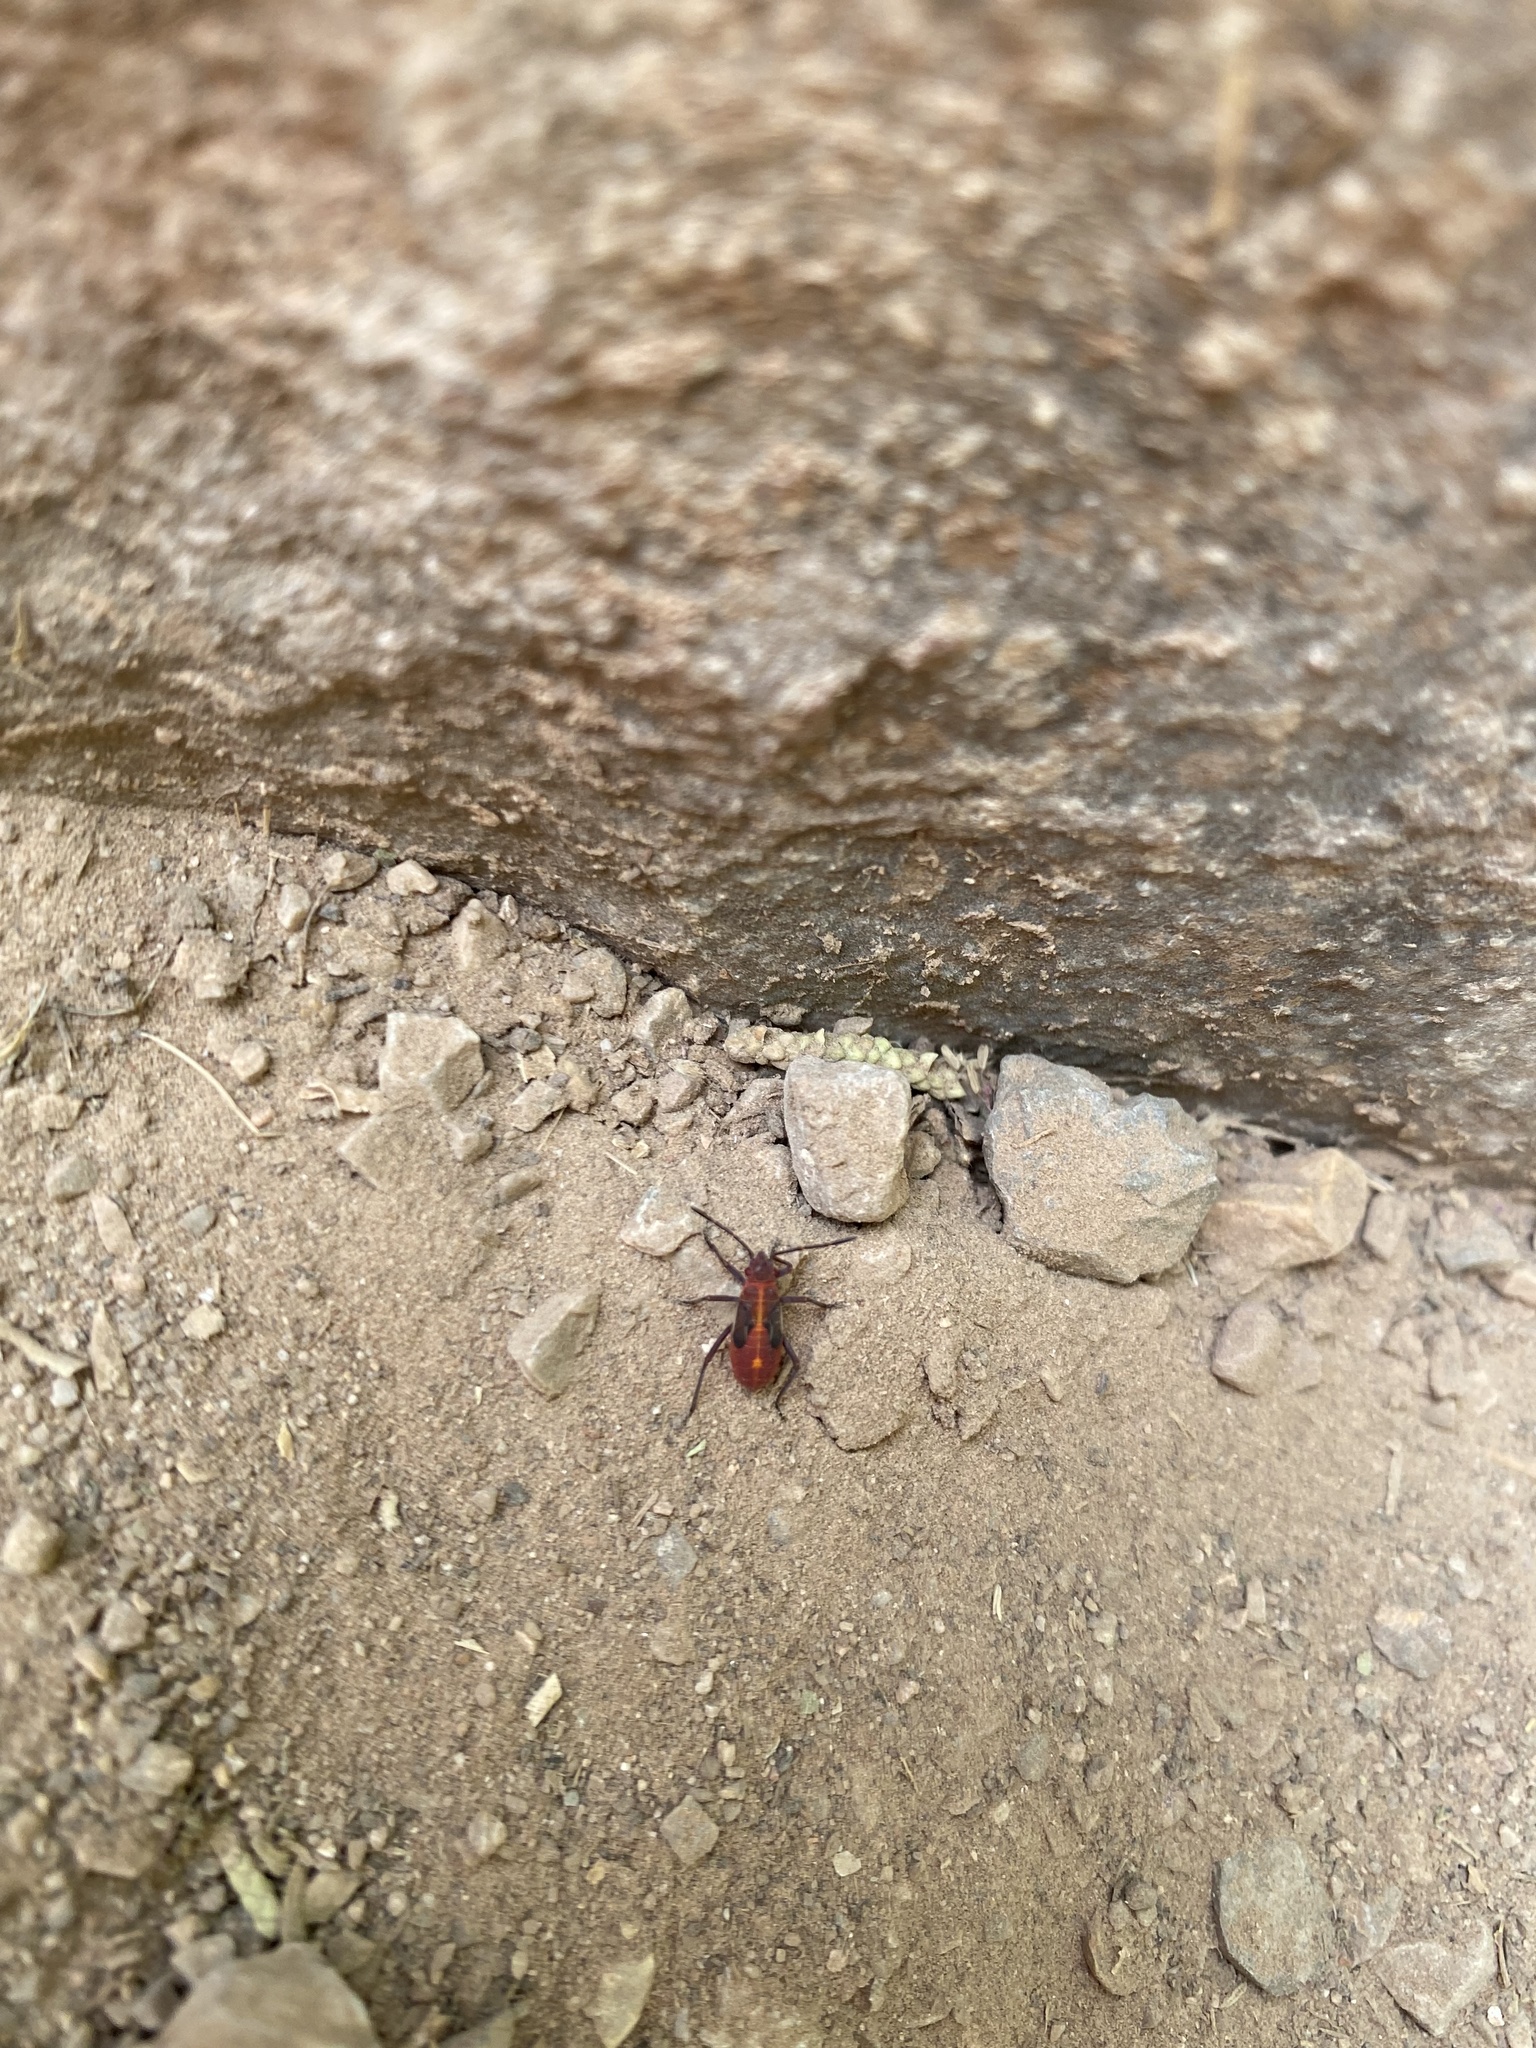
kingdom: Animalia
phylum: Arthropoda
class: Insecta
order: Hemiptera
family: Rhopalidae
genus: Boisea
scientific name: Boisea trivittata
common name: Boxelder bug
